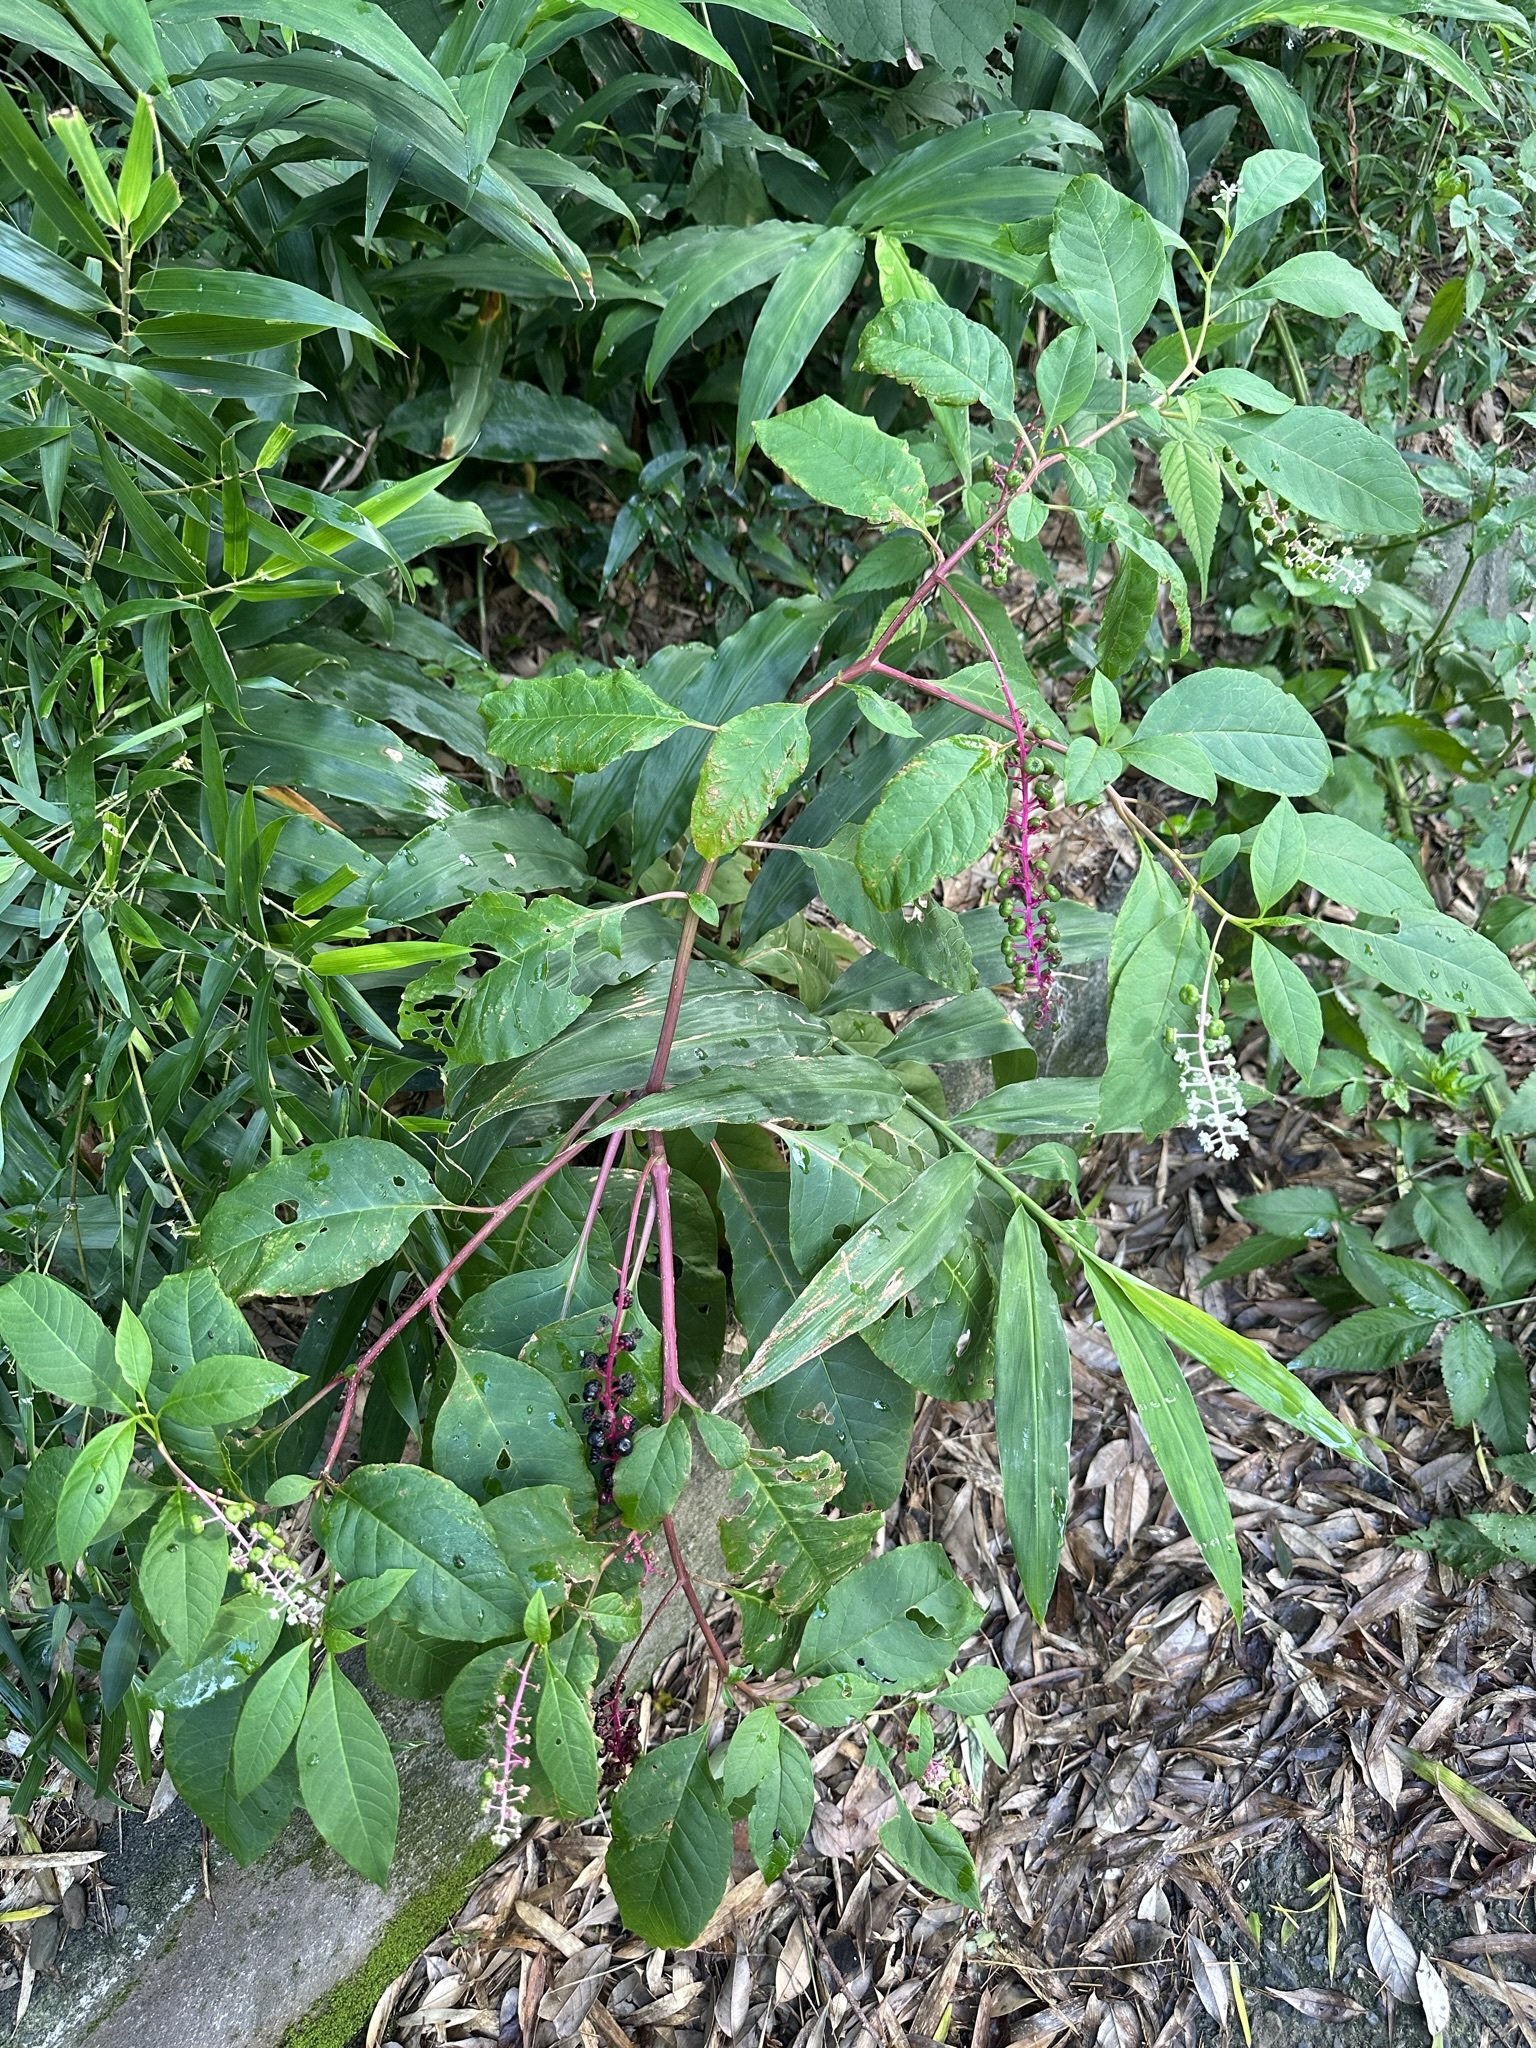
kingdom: Plantae
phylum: Tracheophyta
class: Magnoliopsida
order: Caryophyllales
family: Phytolaccaceae
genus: Phytolacca
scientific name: Phytolacca americana
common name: American pokeweed
